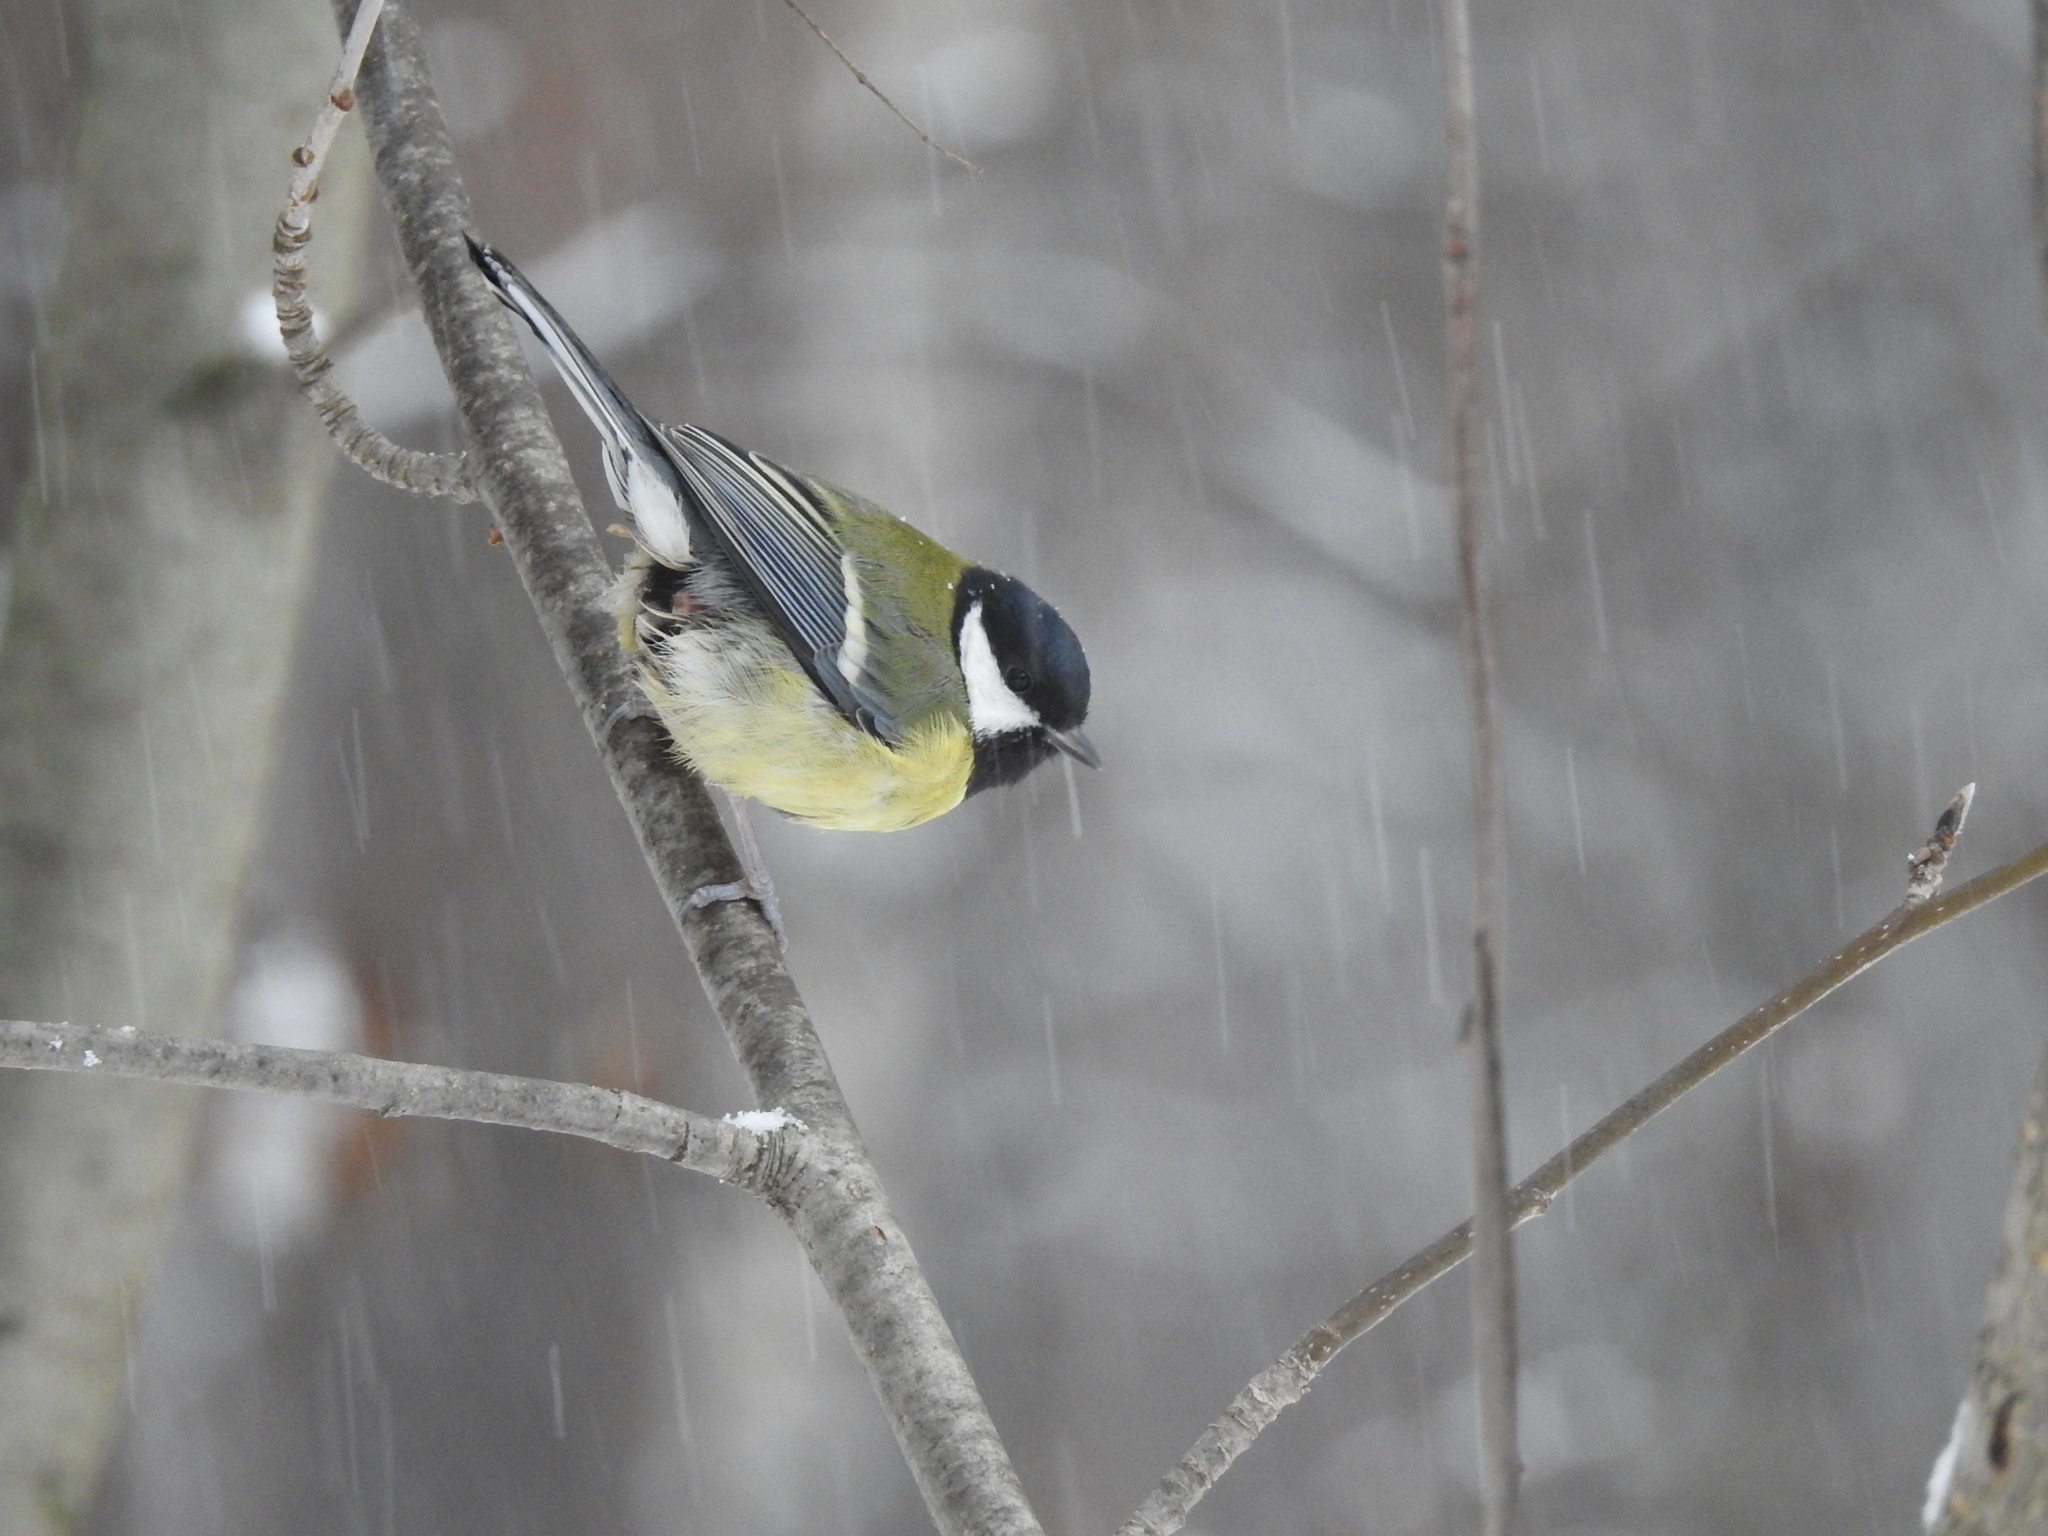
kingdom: Animalia
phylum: Chordata
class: Aves
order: Passeriformes
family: Paridae
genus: Parus
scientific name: Parus major
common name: Great tit
